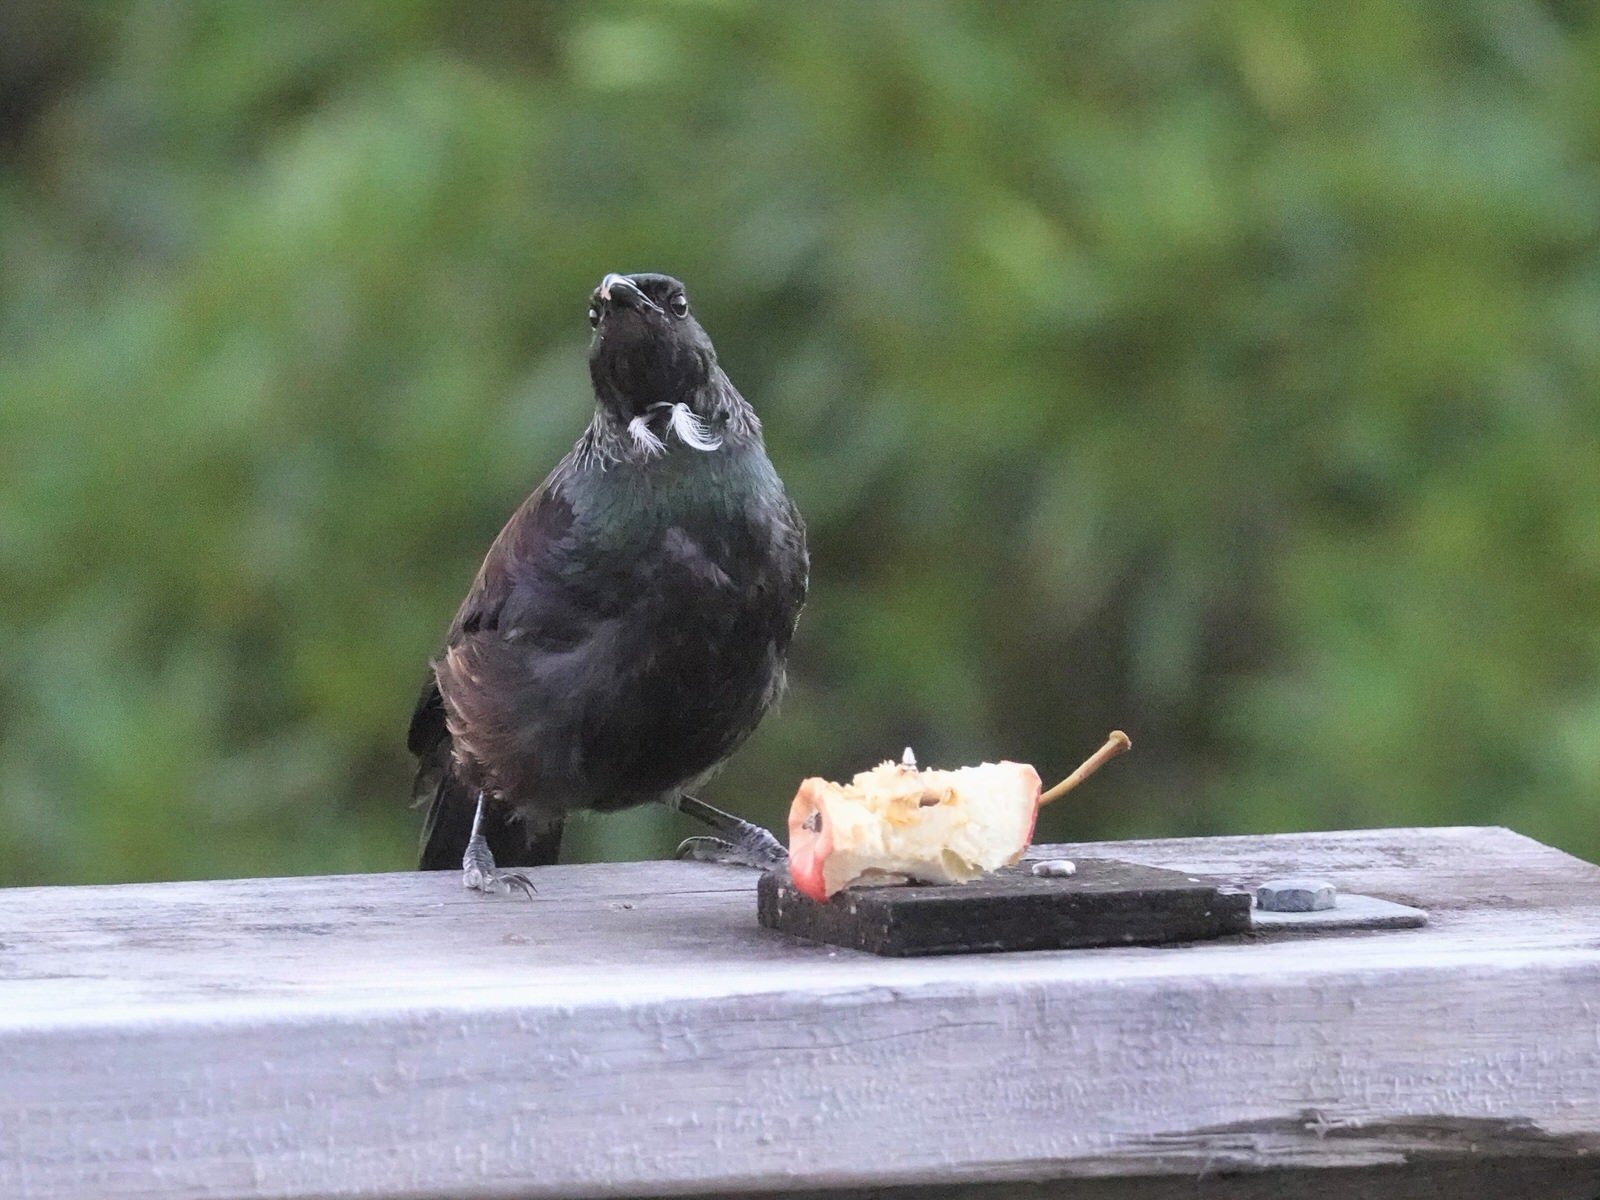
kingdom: Animalia
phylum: Chordata
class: Aves
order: Passeriformes
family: Meliphagidae
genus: Prosthemadera
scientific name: Prosthemadera novaeseelandiae
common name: Tui
